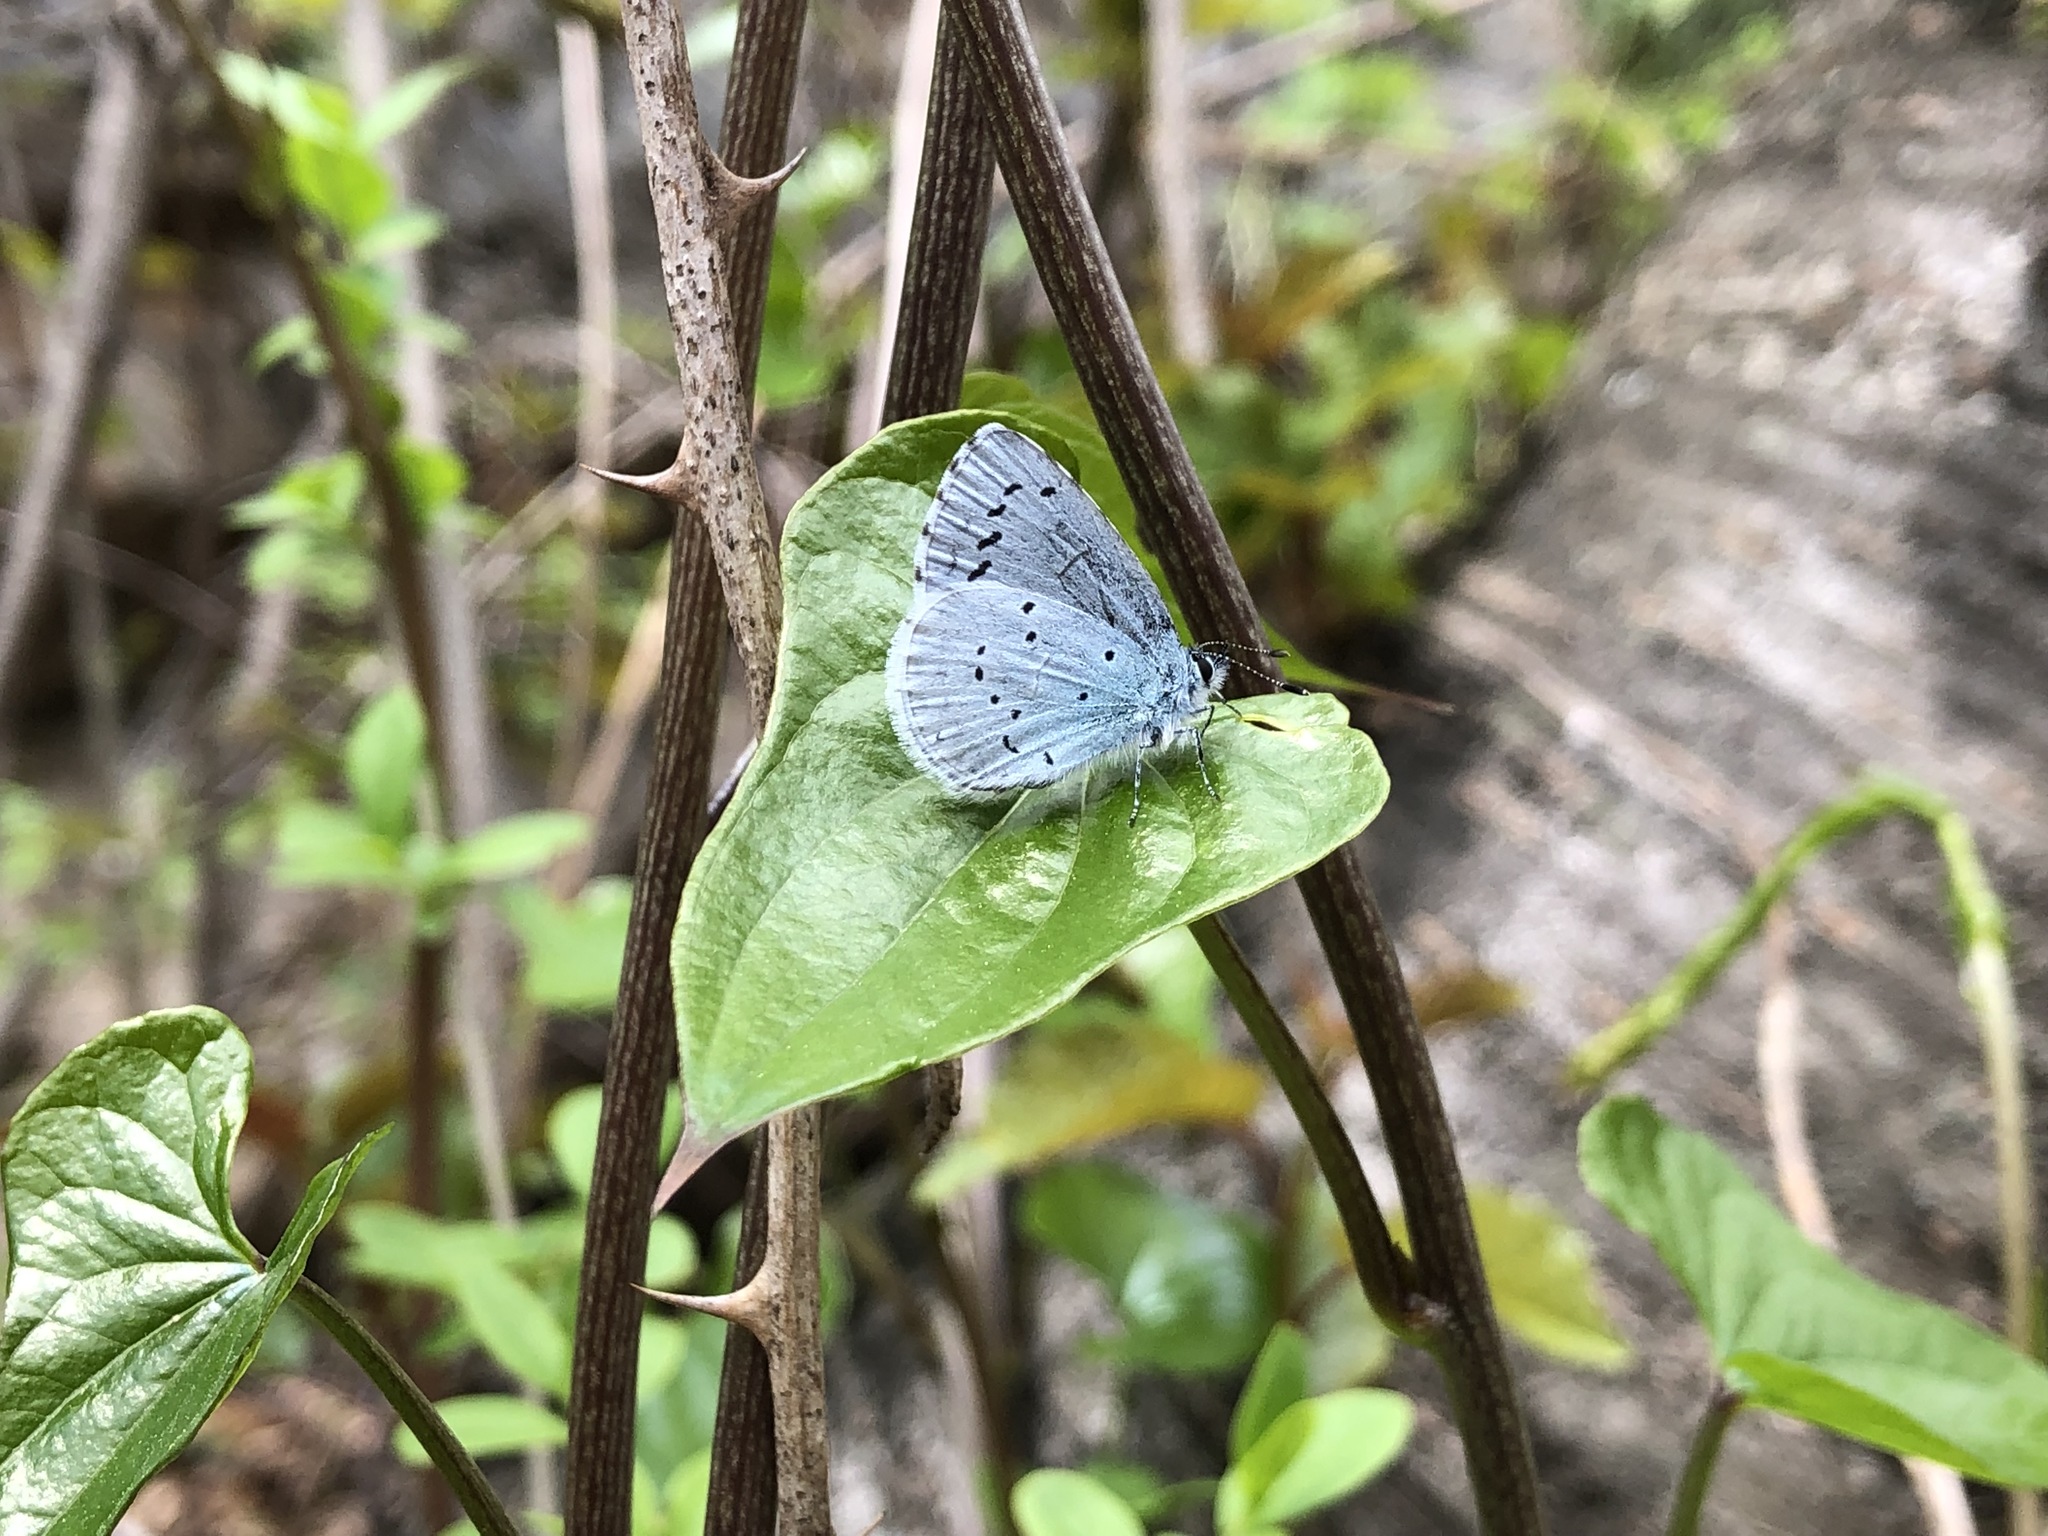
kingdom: Animalia
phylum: Arthropoda
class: Insecta
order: Lepidoptera
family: Lycaenidae
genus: Celastrina
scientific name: Celastrina argiolus
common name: Holly blue
